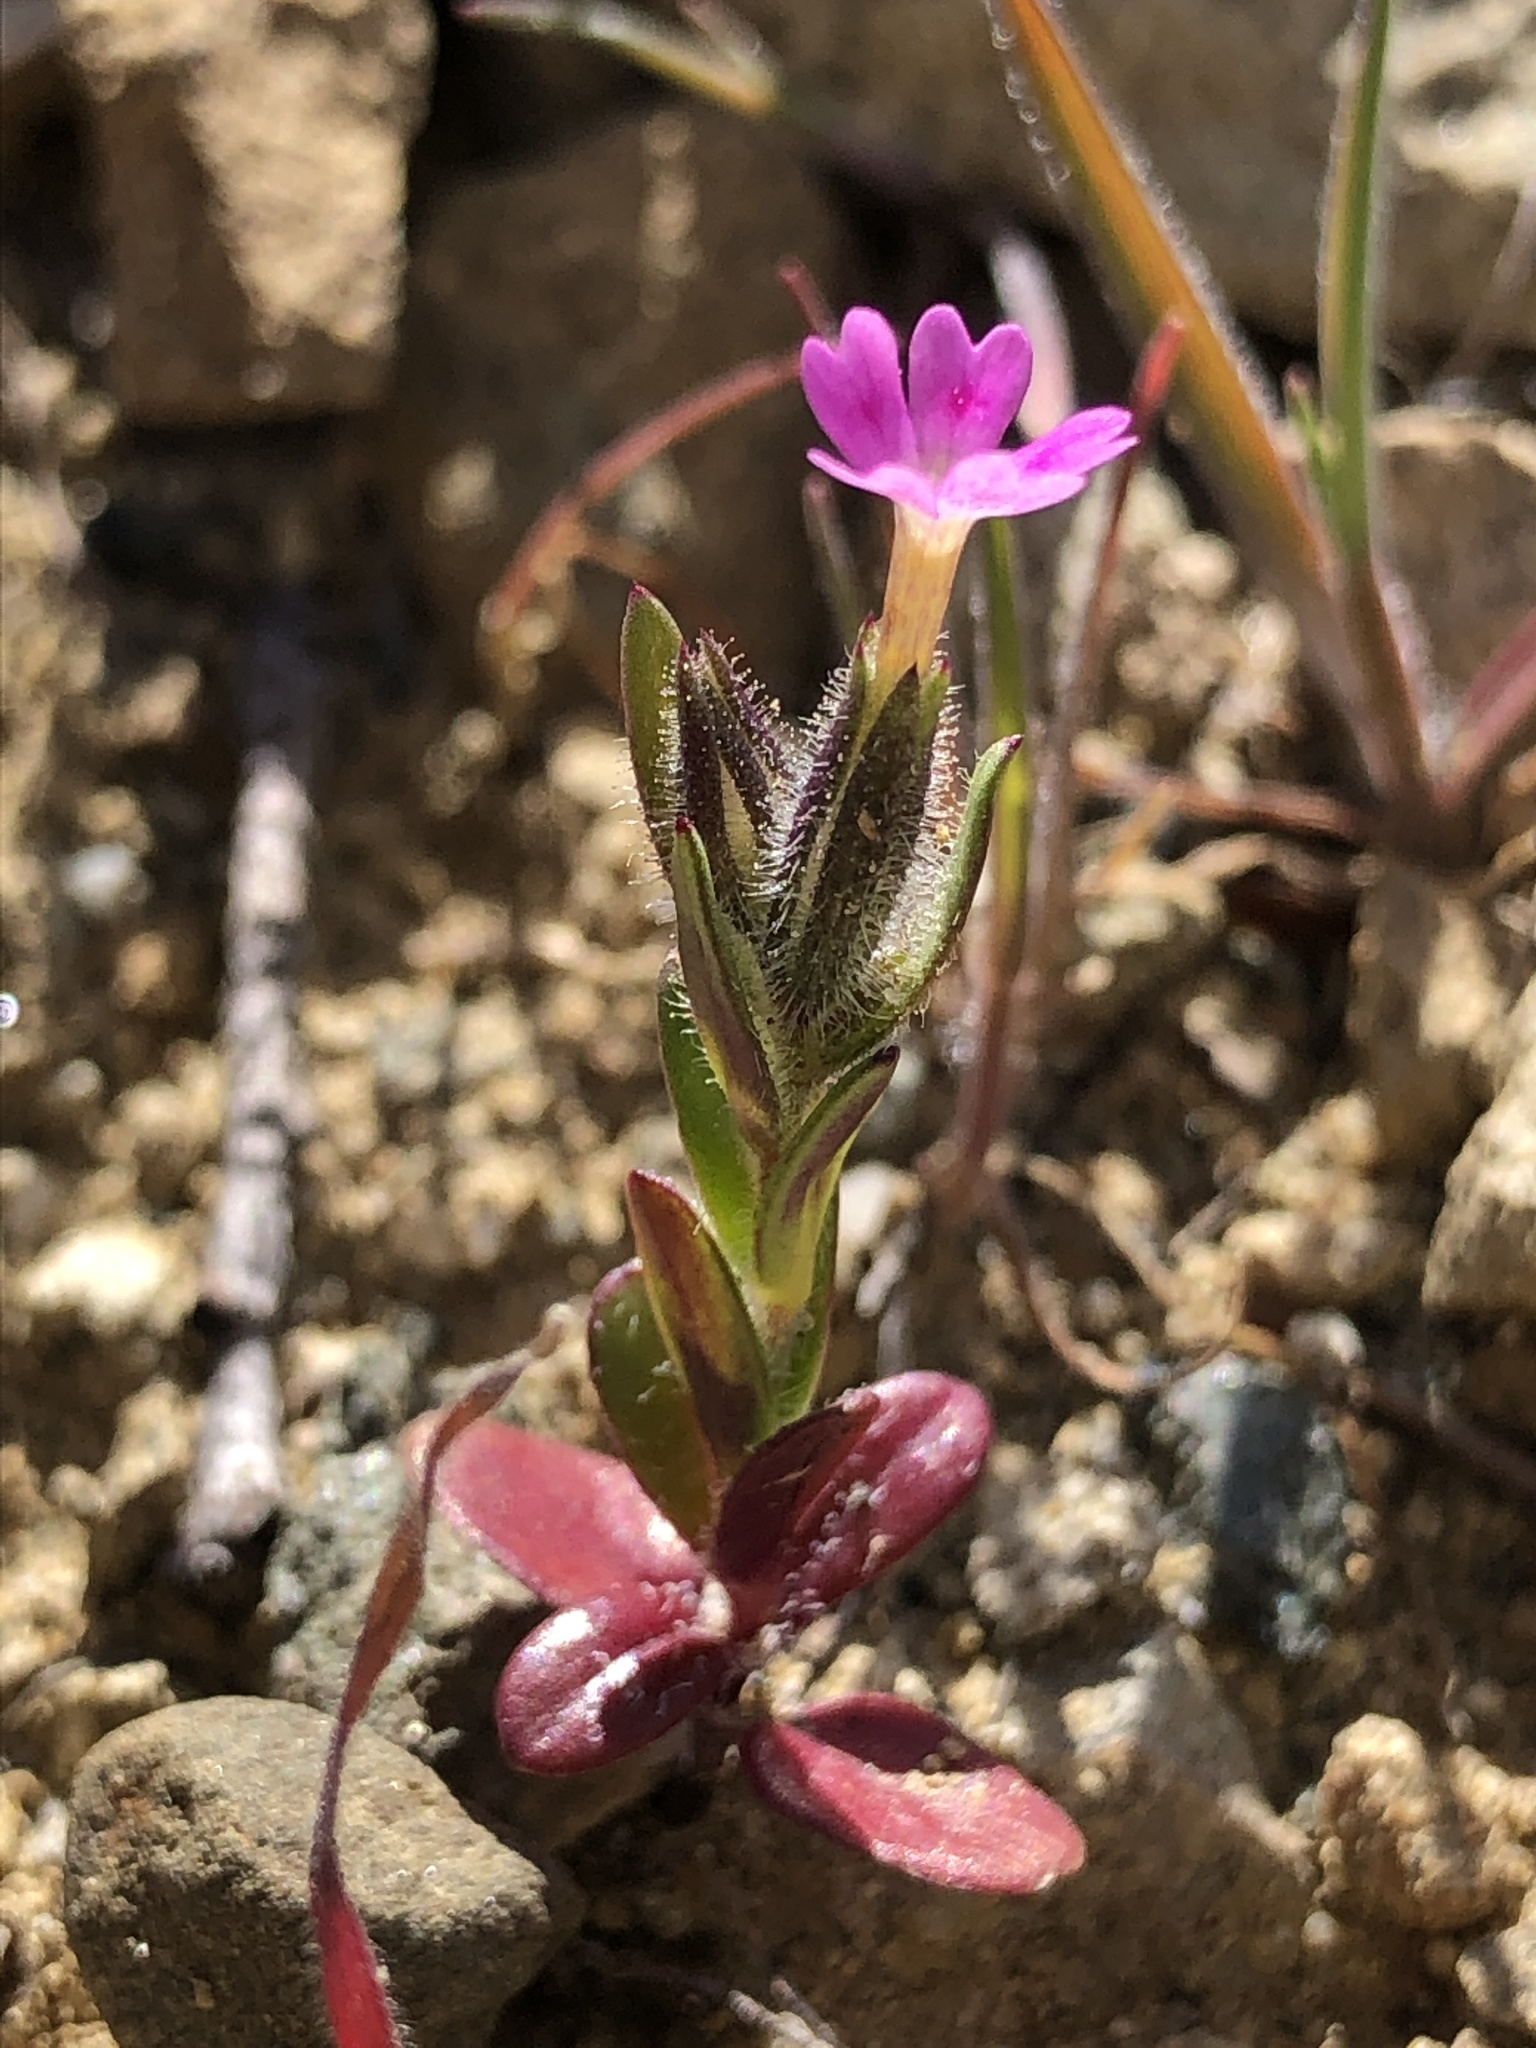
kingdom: Plantae
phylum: Tracheophyta
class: Magnoliopsida
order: Ericales
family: Polemoniaceae
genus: Phlox
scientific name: Phlox gracilis
